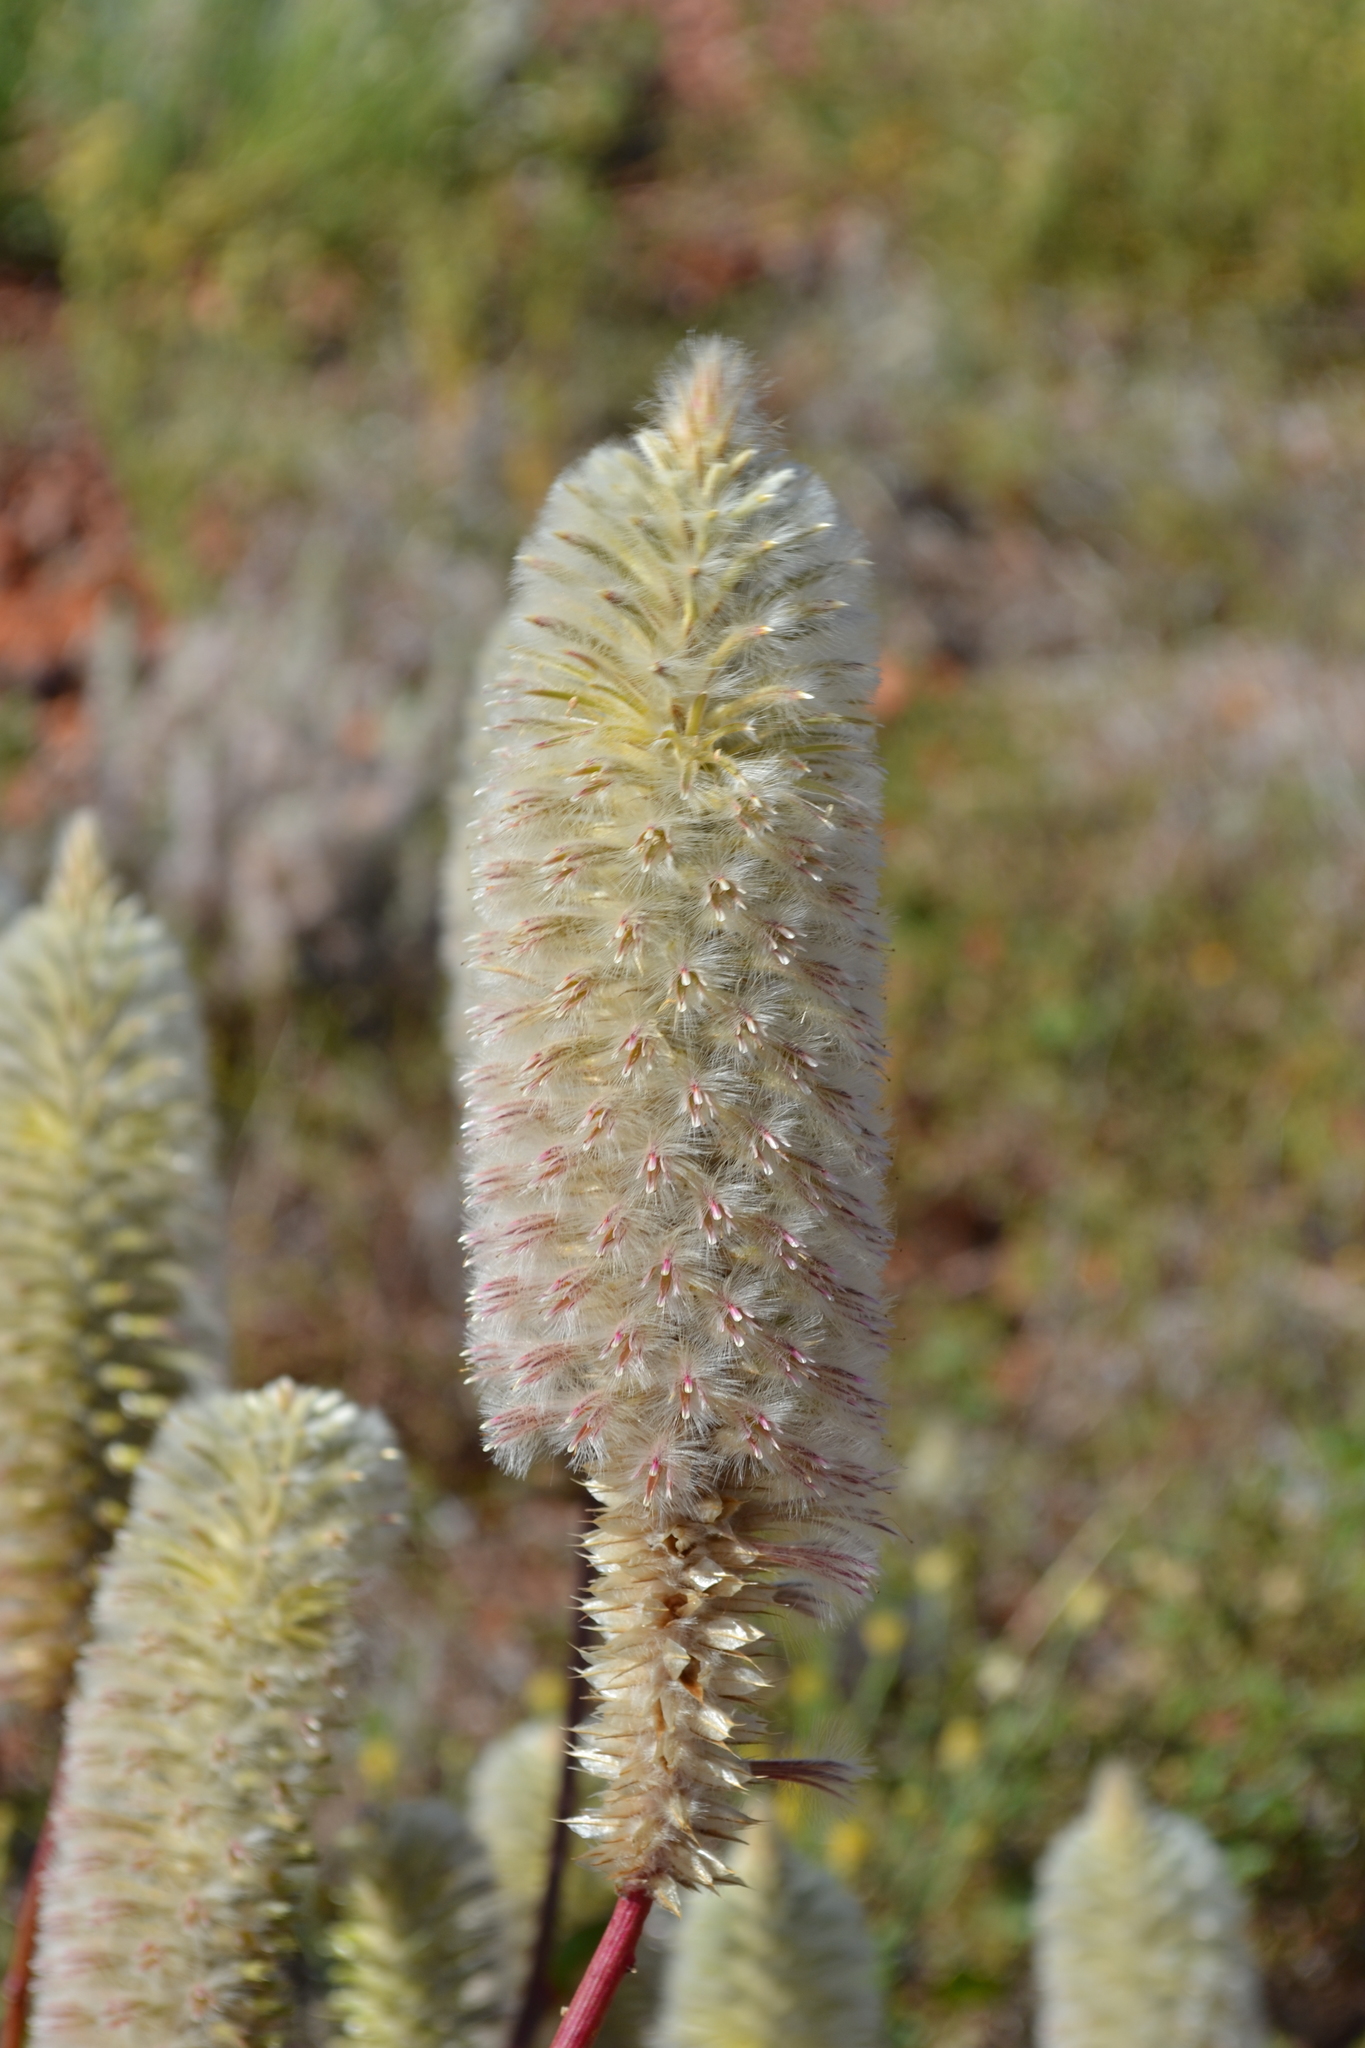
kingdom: Plantae
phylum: Tracheophyta
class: Magnoliopsida
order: Caryophyllales
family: Amaranthaceae
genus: Ptilotus
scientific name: Ptilotus nobilis
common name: Regal-foxtail
